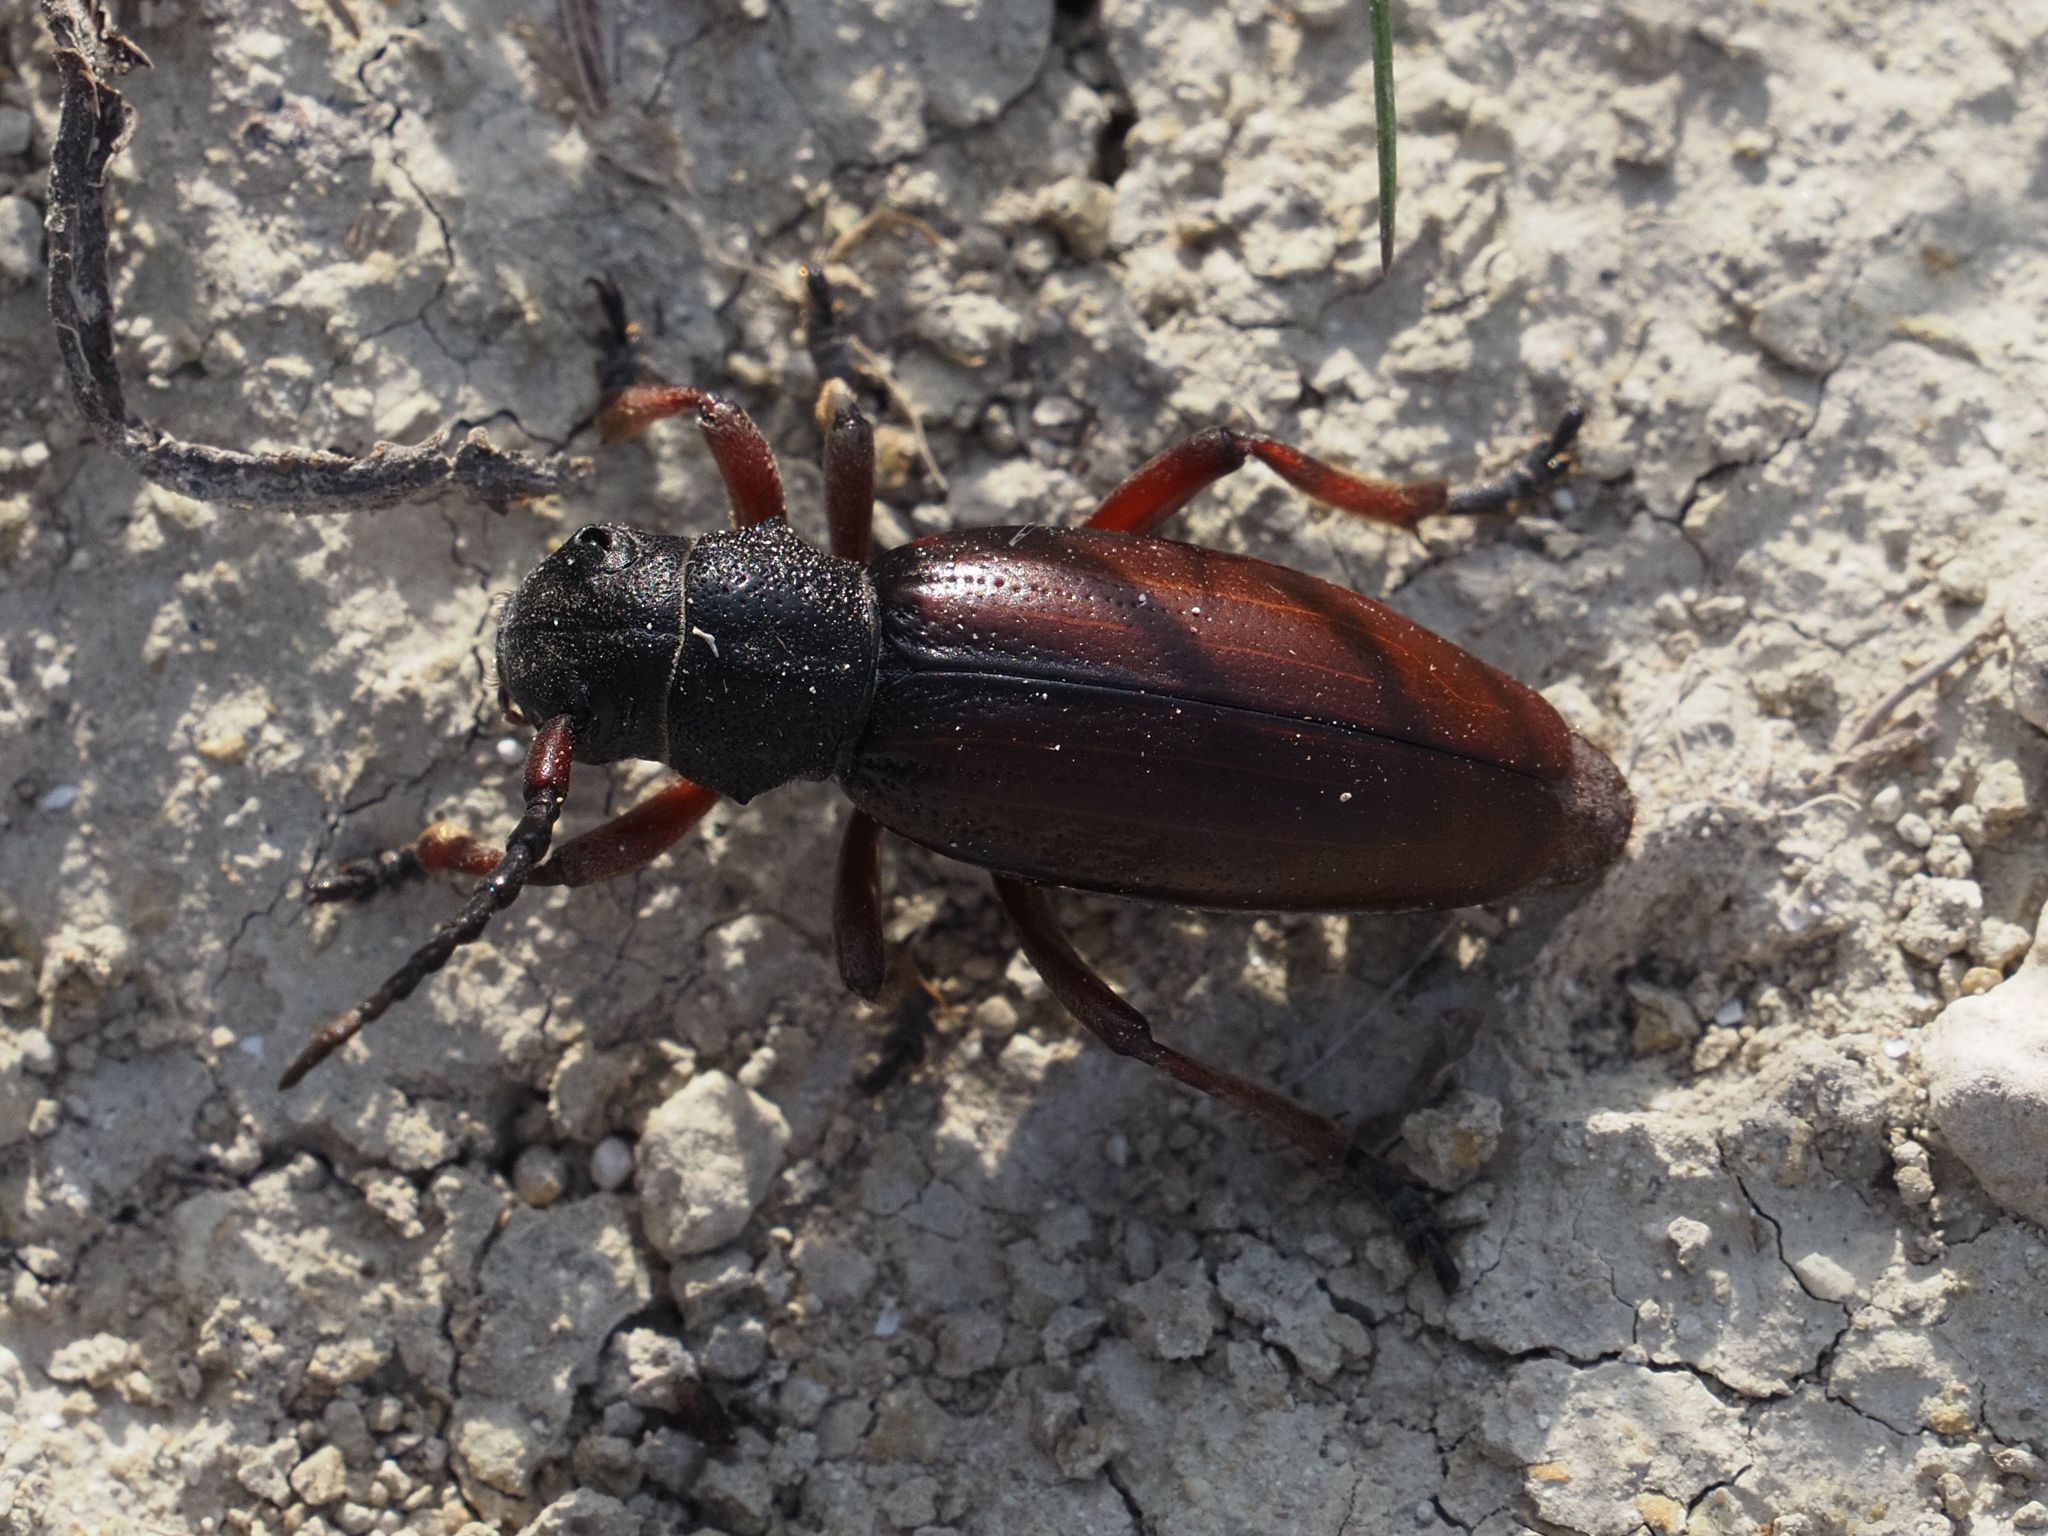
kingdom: Animalia
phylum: Arthropoda
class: Insecta
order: Coleoptera
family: Cerambycidae
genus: Dorcadion
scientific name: Dorcadion fulvum
